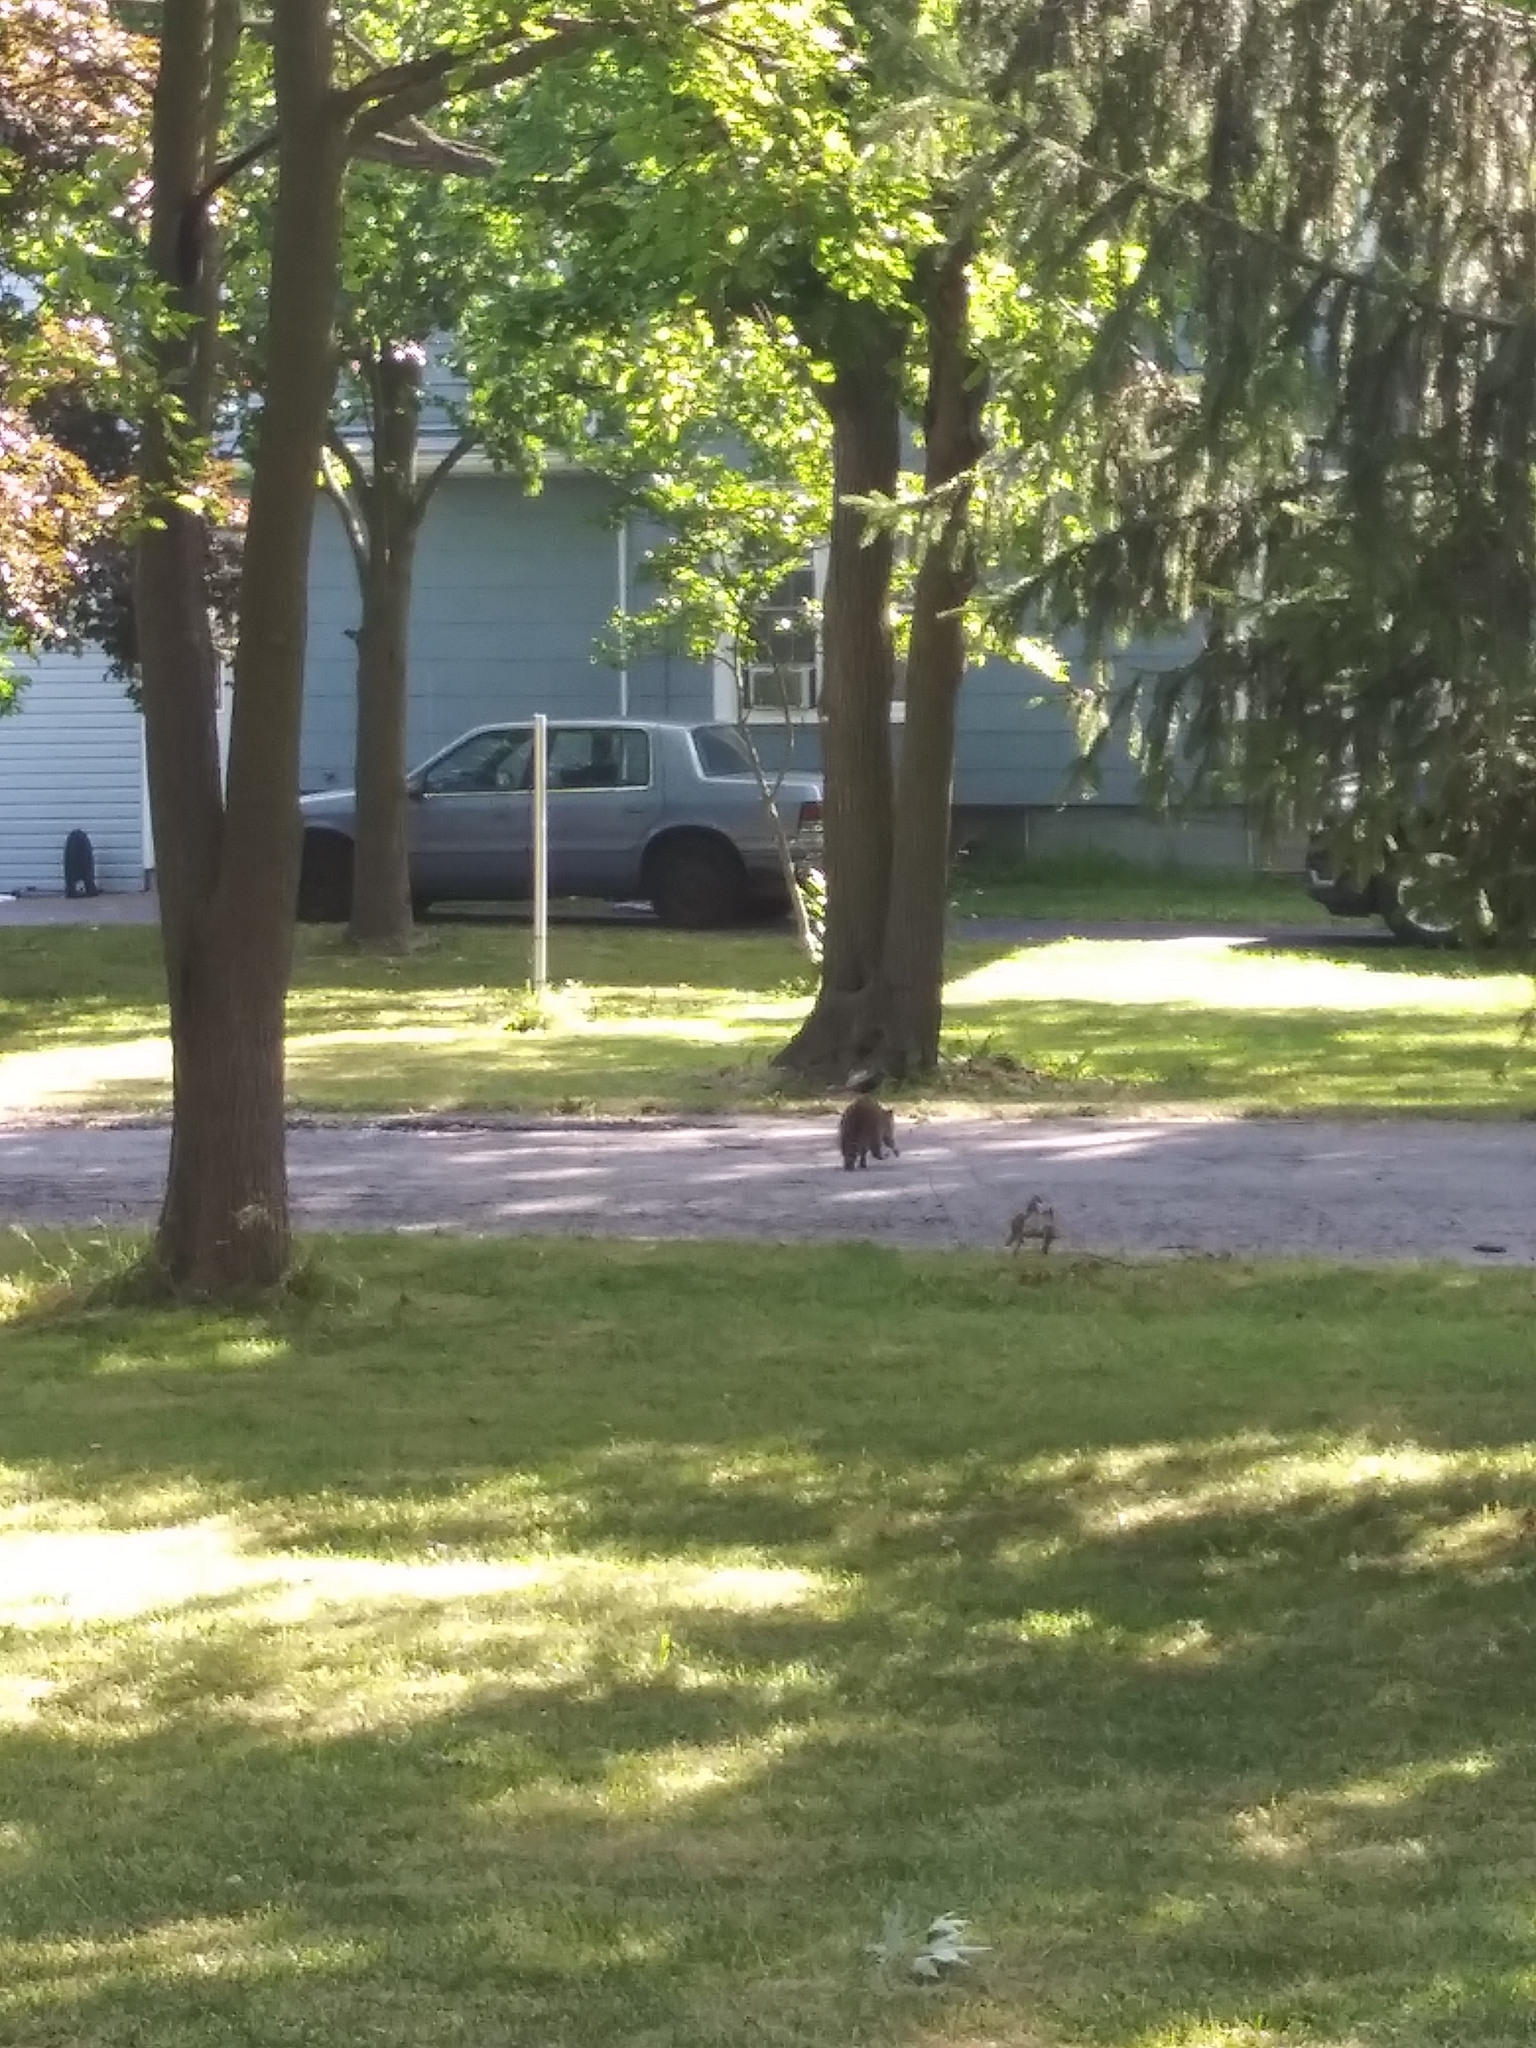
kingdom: Animalia
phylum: Chordata
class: Mammalia
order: Carnivora
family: Procyonidae
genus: Procyon
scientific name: Procyon lotor
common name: Raccoon
